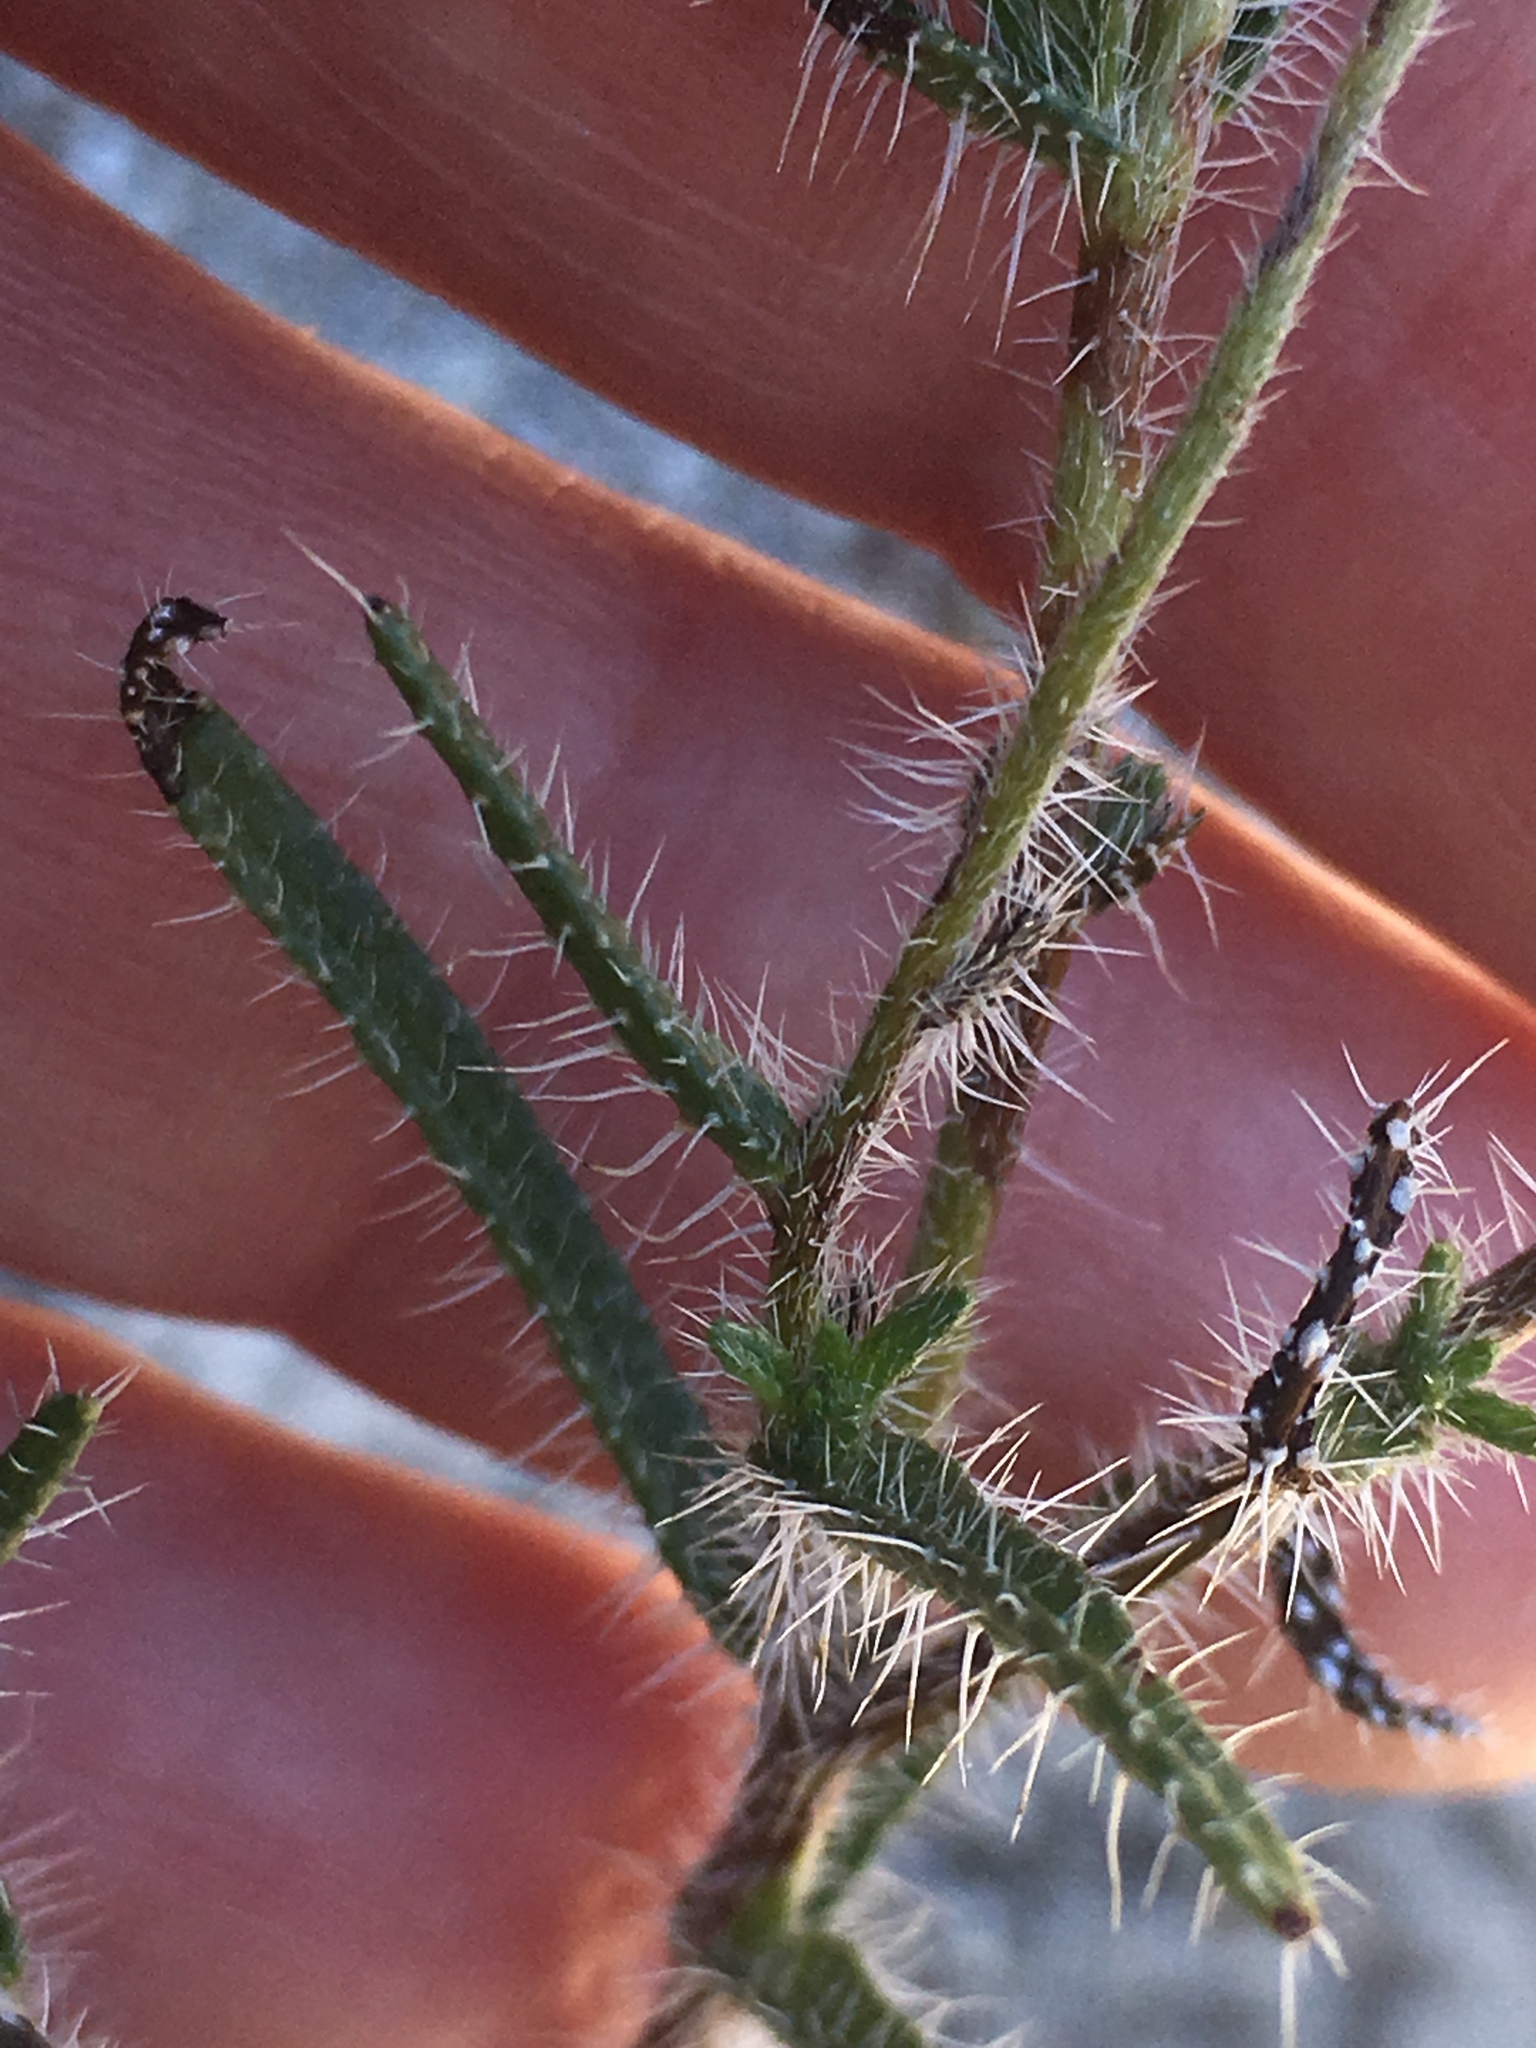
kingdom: Plantae
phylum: Tracheophyta
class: Magnoliopsida
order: Boraginales
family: Boraginaceae
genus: Cryptantha
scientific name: Cryptantha maritima
